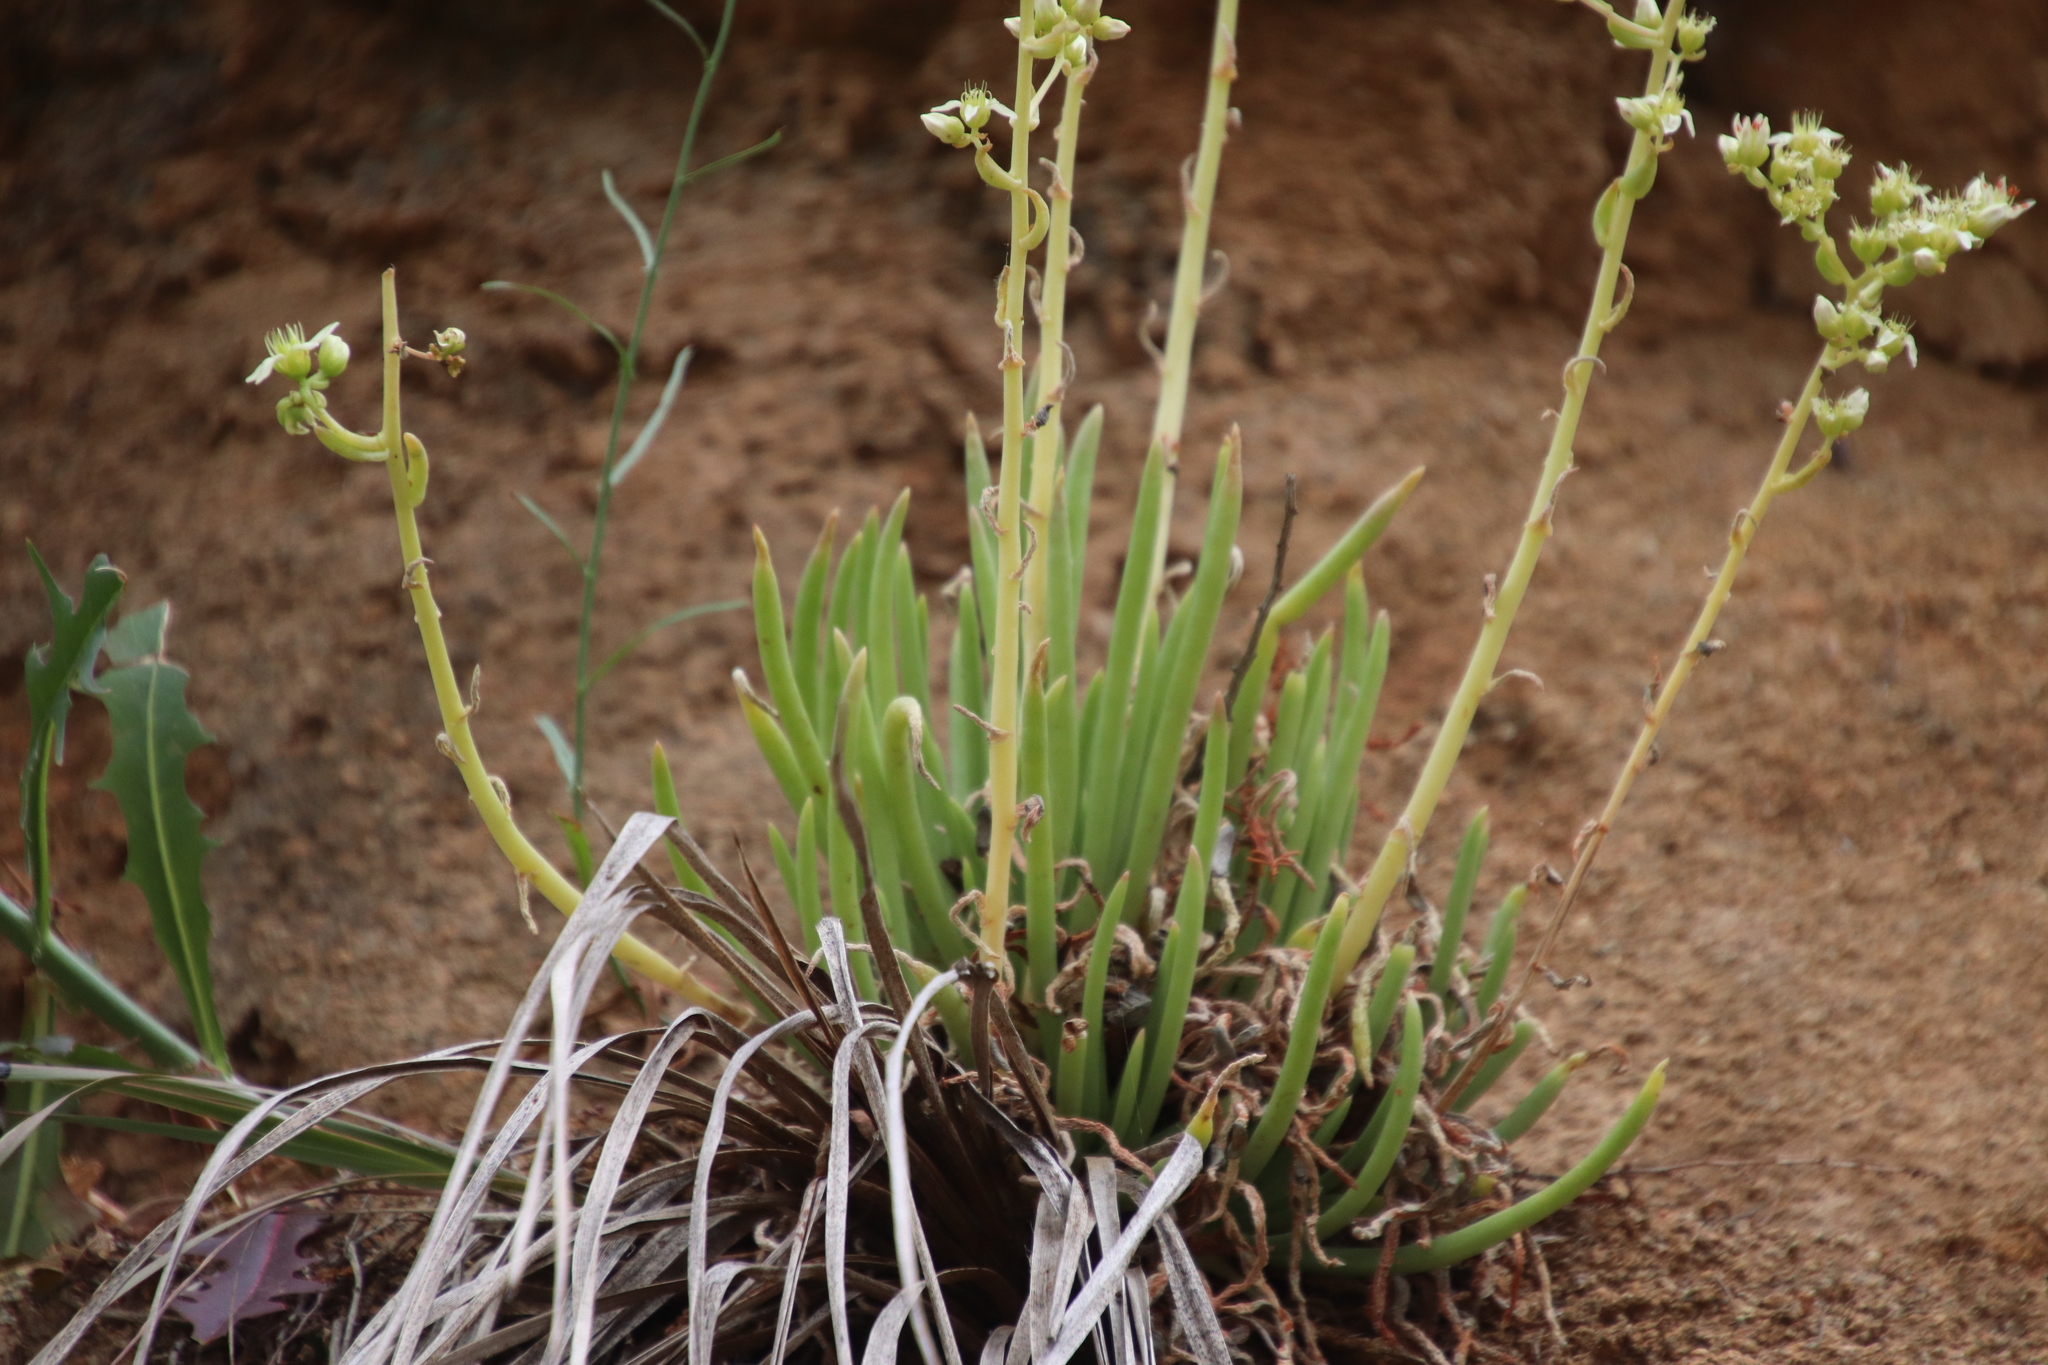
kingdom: Plantae
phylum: Tracheophyta
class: Magnoliopsida
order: Saxifragales
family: Crassulaceae
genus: Dudleya
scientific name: Dudleya edulis
